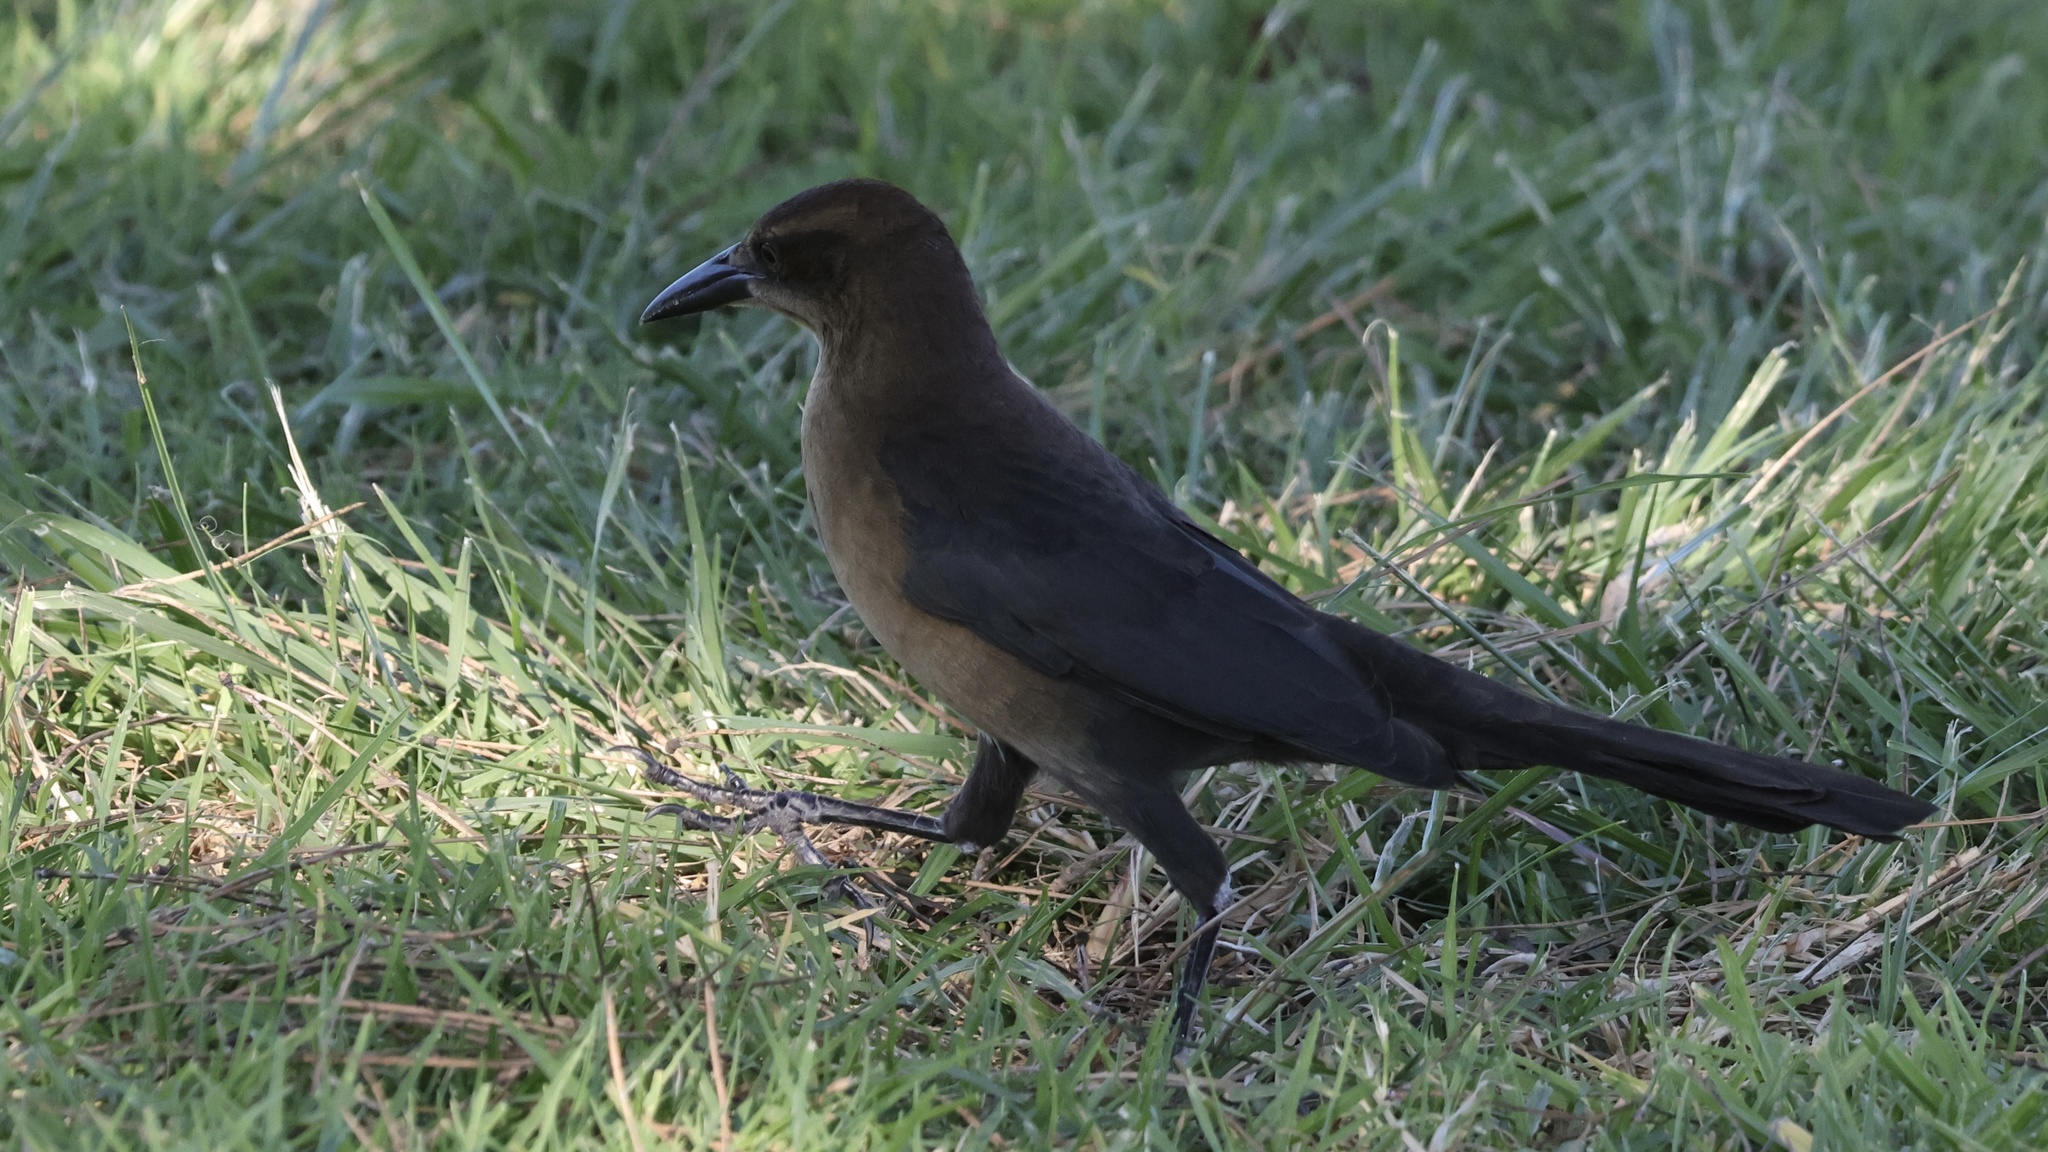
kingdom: Animalia
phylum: Chordata
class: Aves
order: Passeriformes
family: Icteridae
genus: Quiscalus
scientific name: Quiscalus mexicanus
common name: Great-tailed grackle
